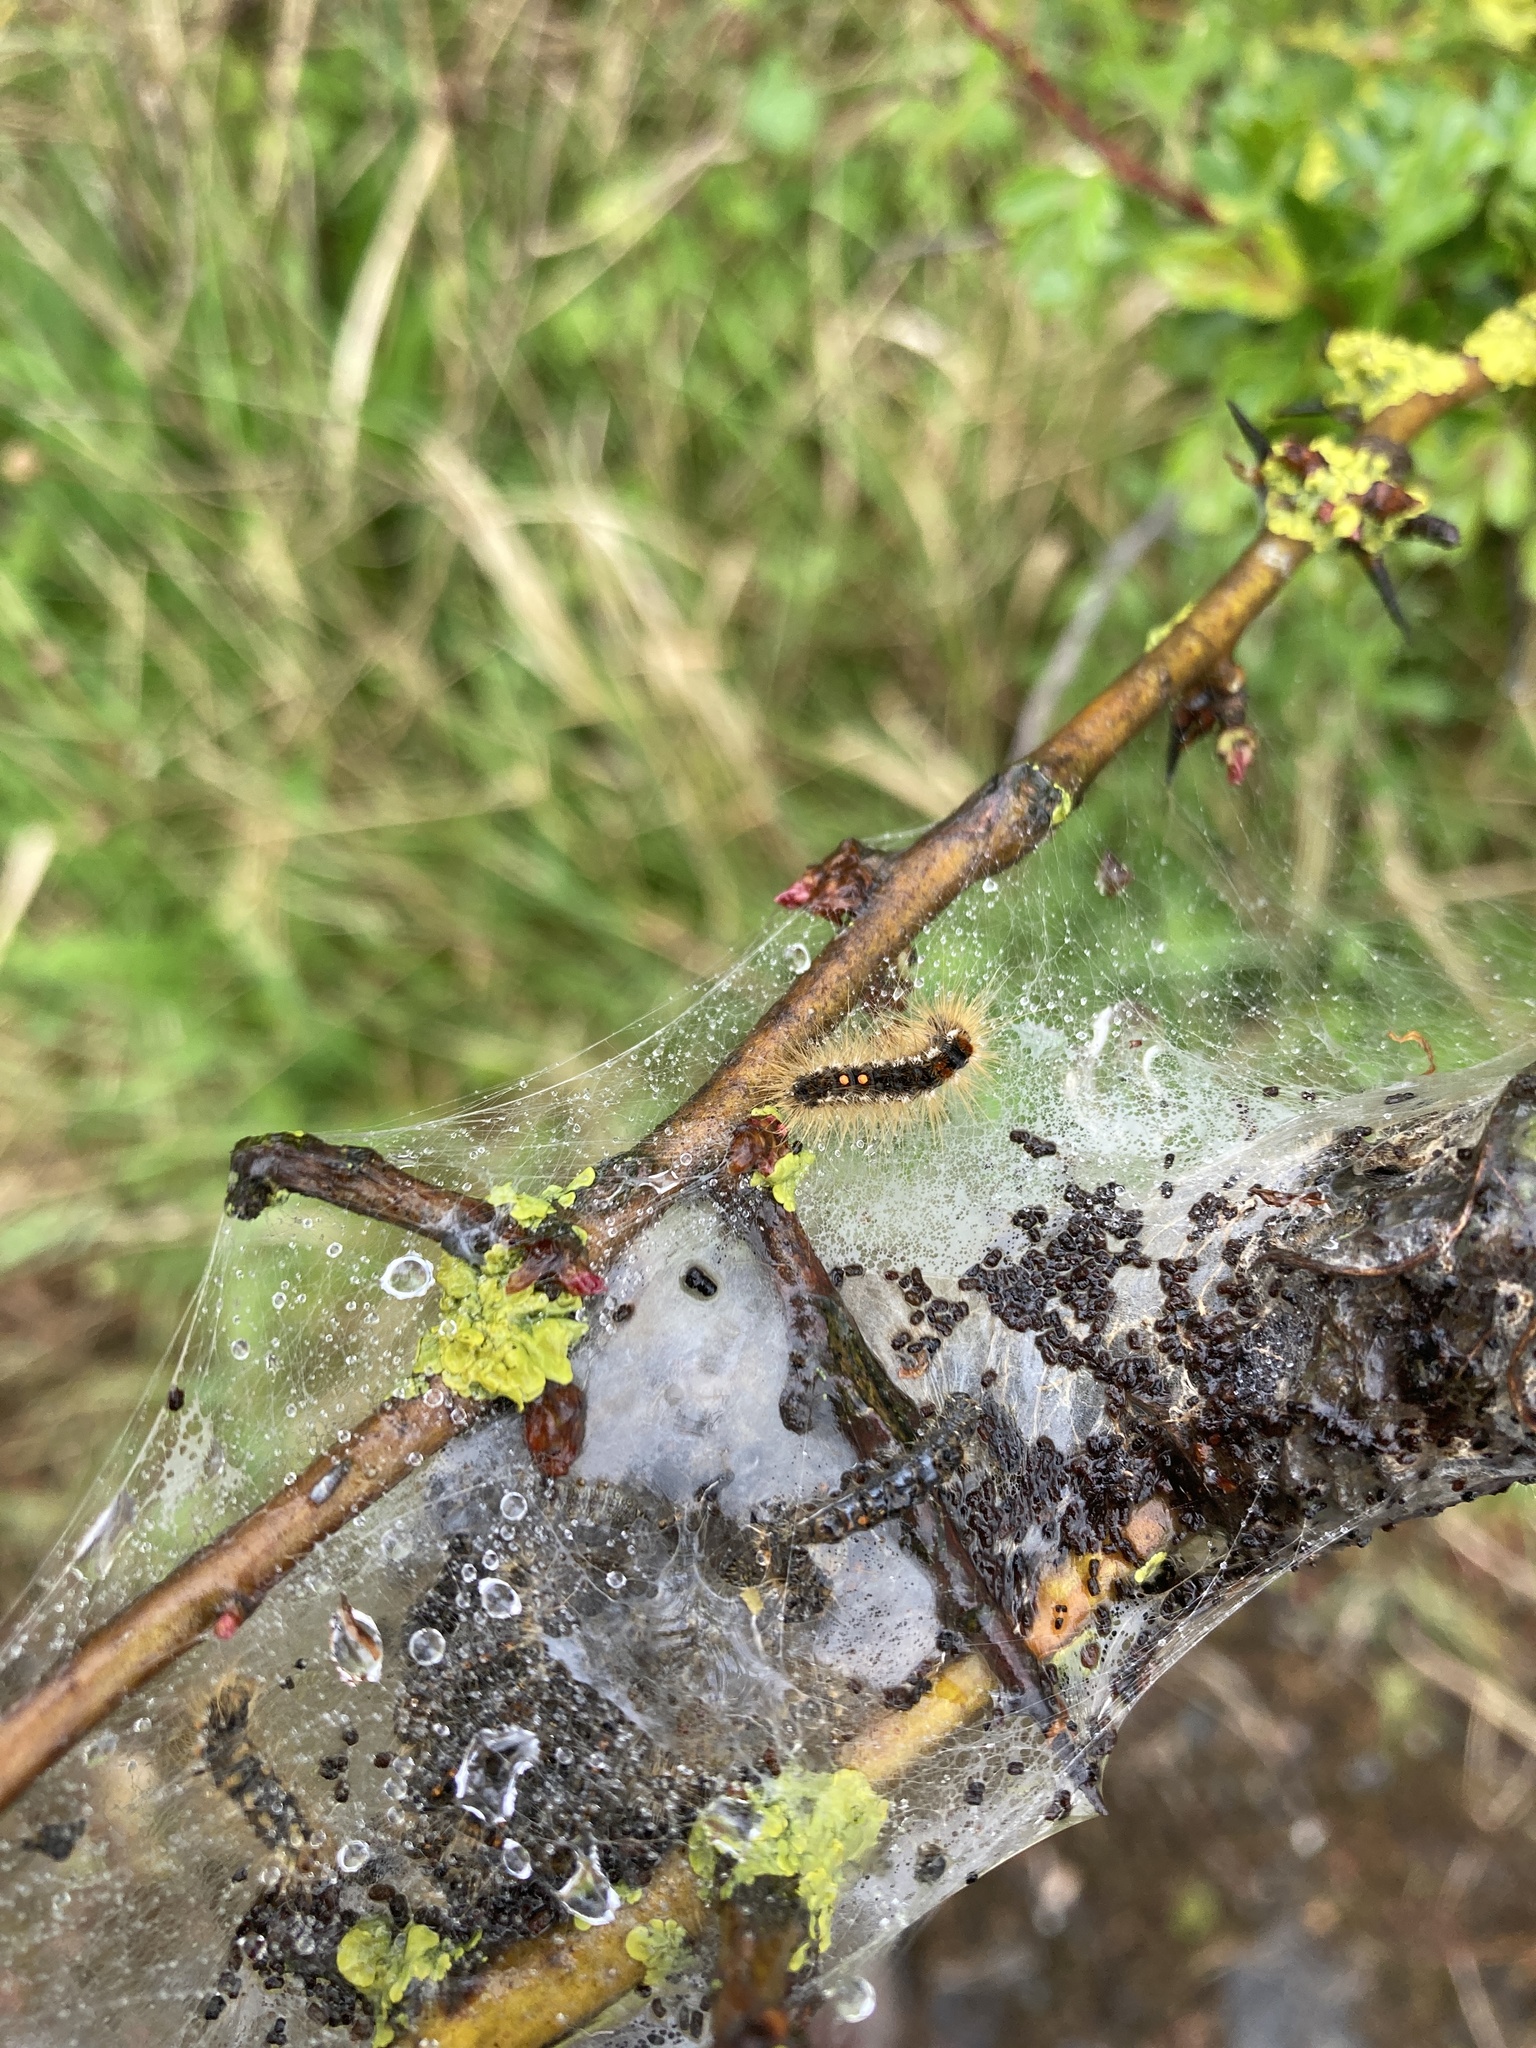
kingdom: Animalia
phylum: Arthropoda
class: Insecta
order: Lepidoptera
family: Erebidae
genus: Euproctis
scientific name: Euproctis chrysorrhoea
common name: Brown-tail
